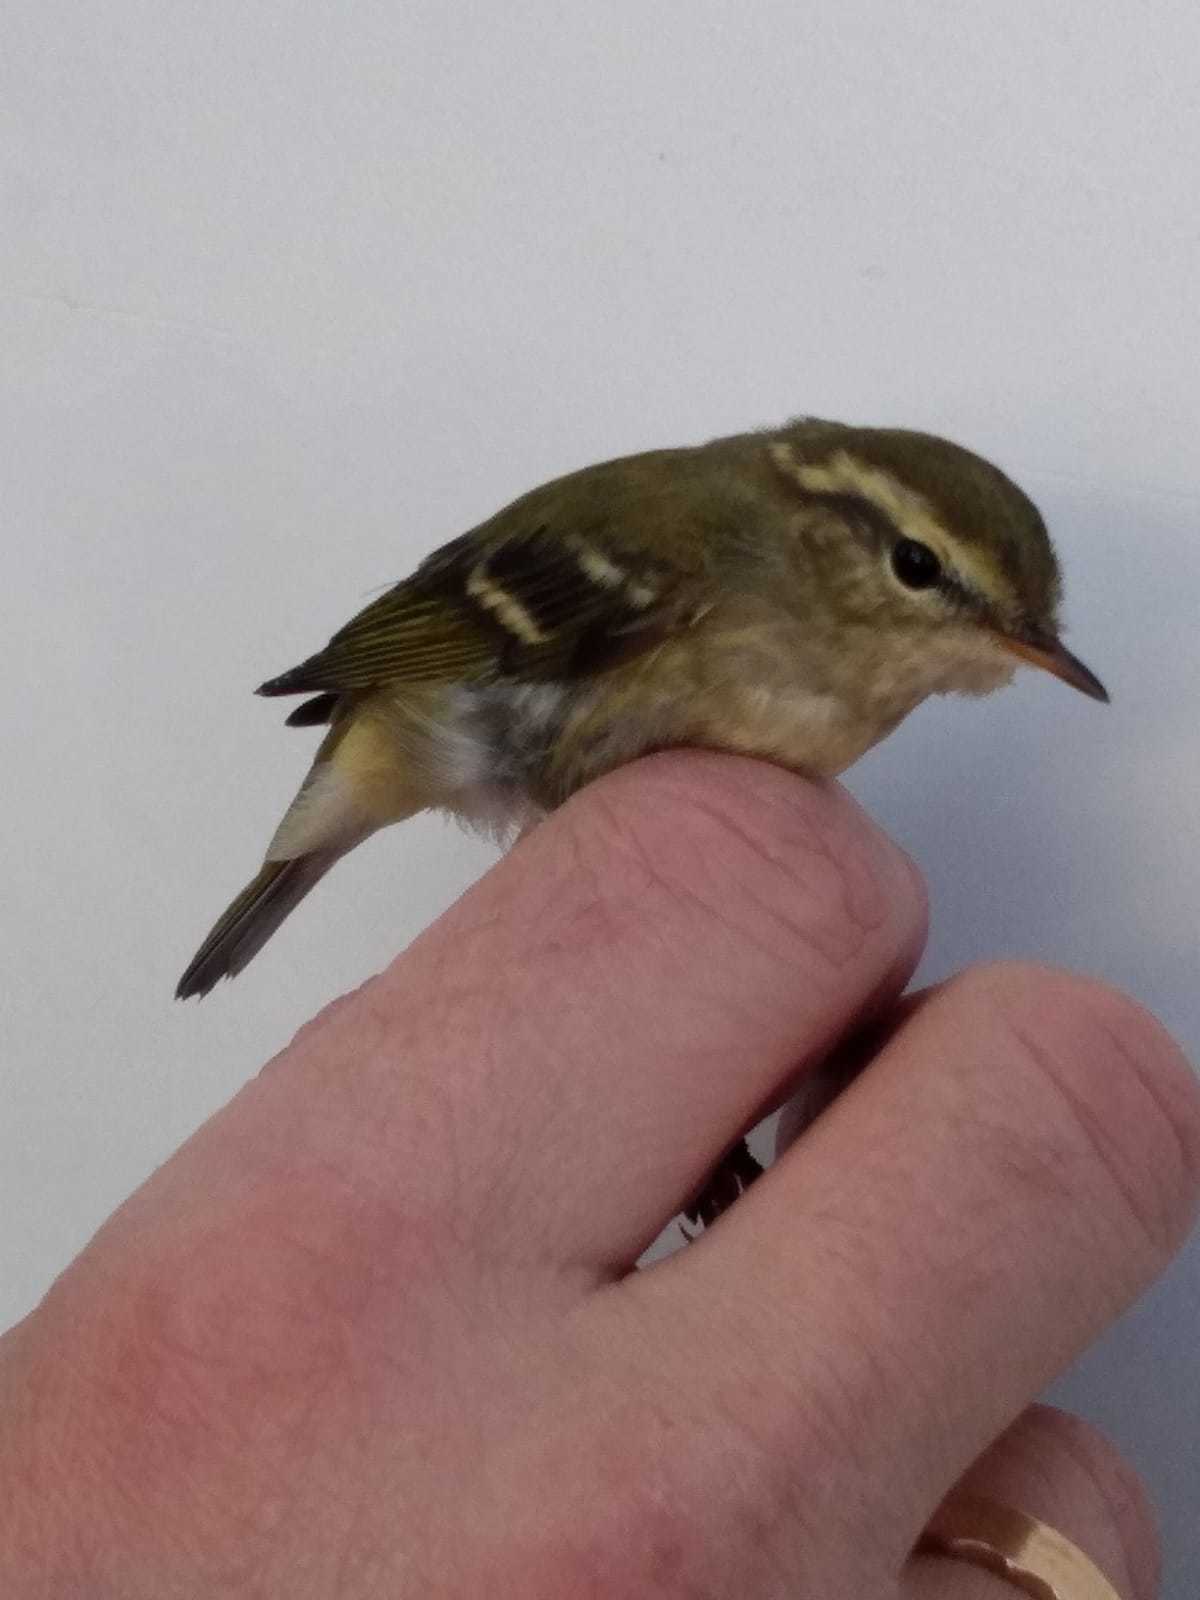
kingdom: Animalia
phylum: Chordata
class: Aves
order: Passeriformes
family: Phylloscopidae
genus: Phylloscopus
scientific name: Phylloscopus inornatus
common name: Yellow-browed warbler
